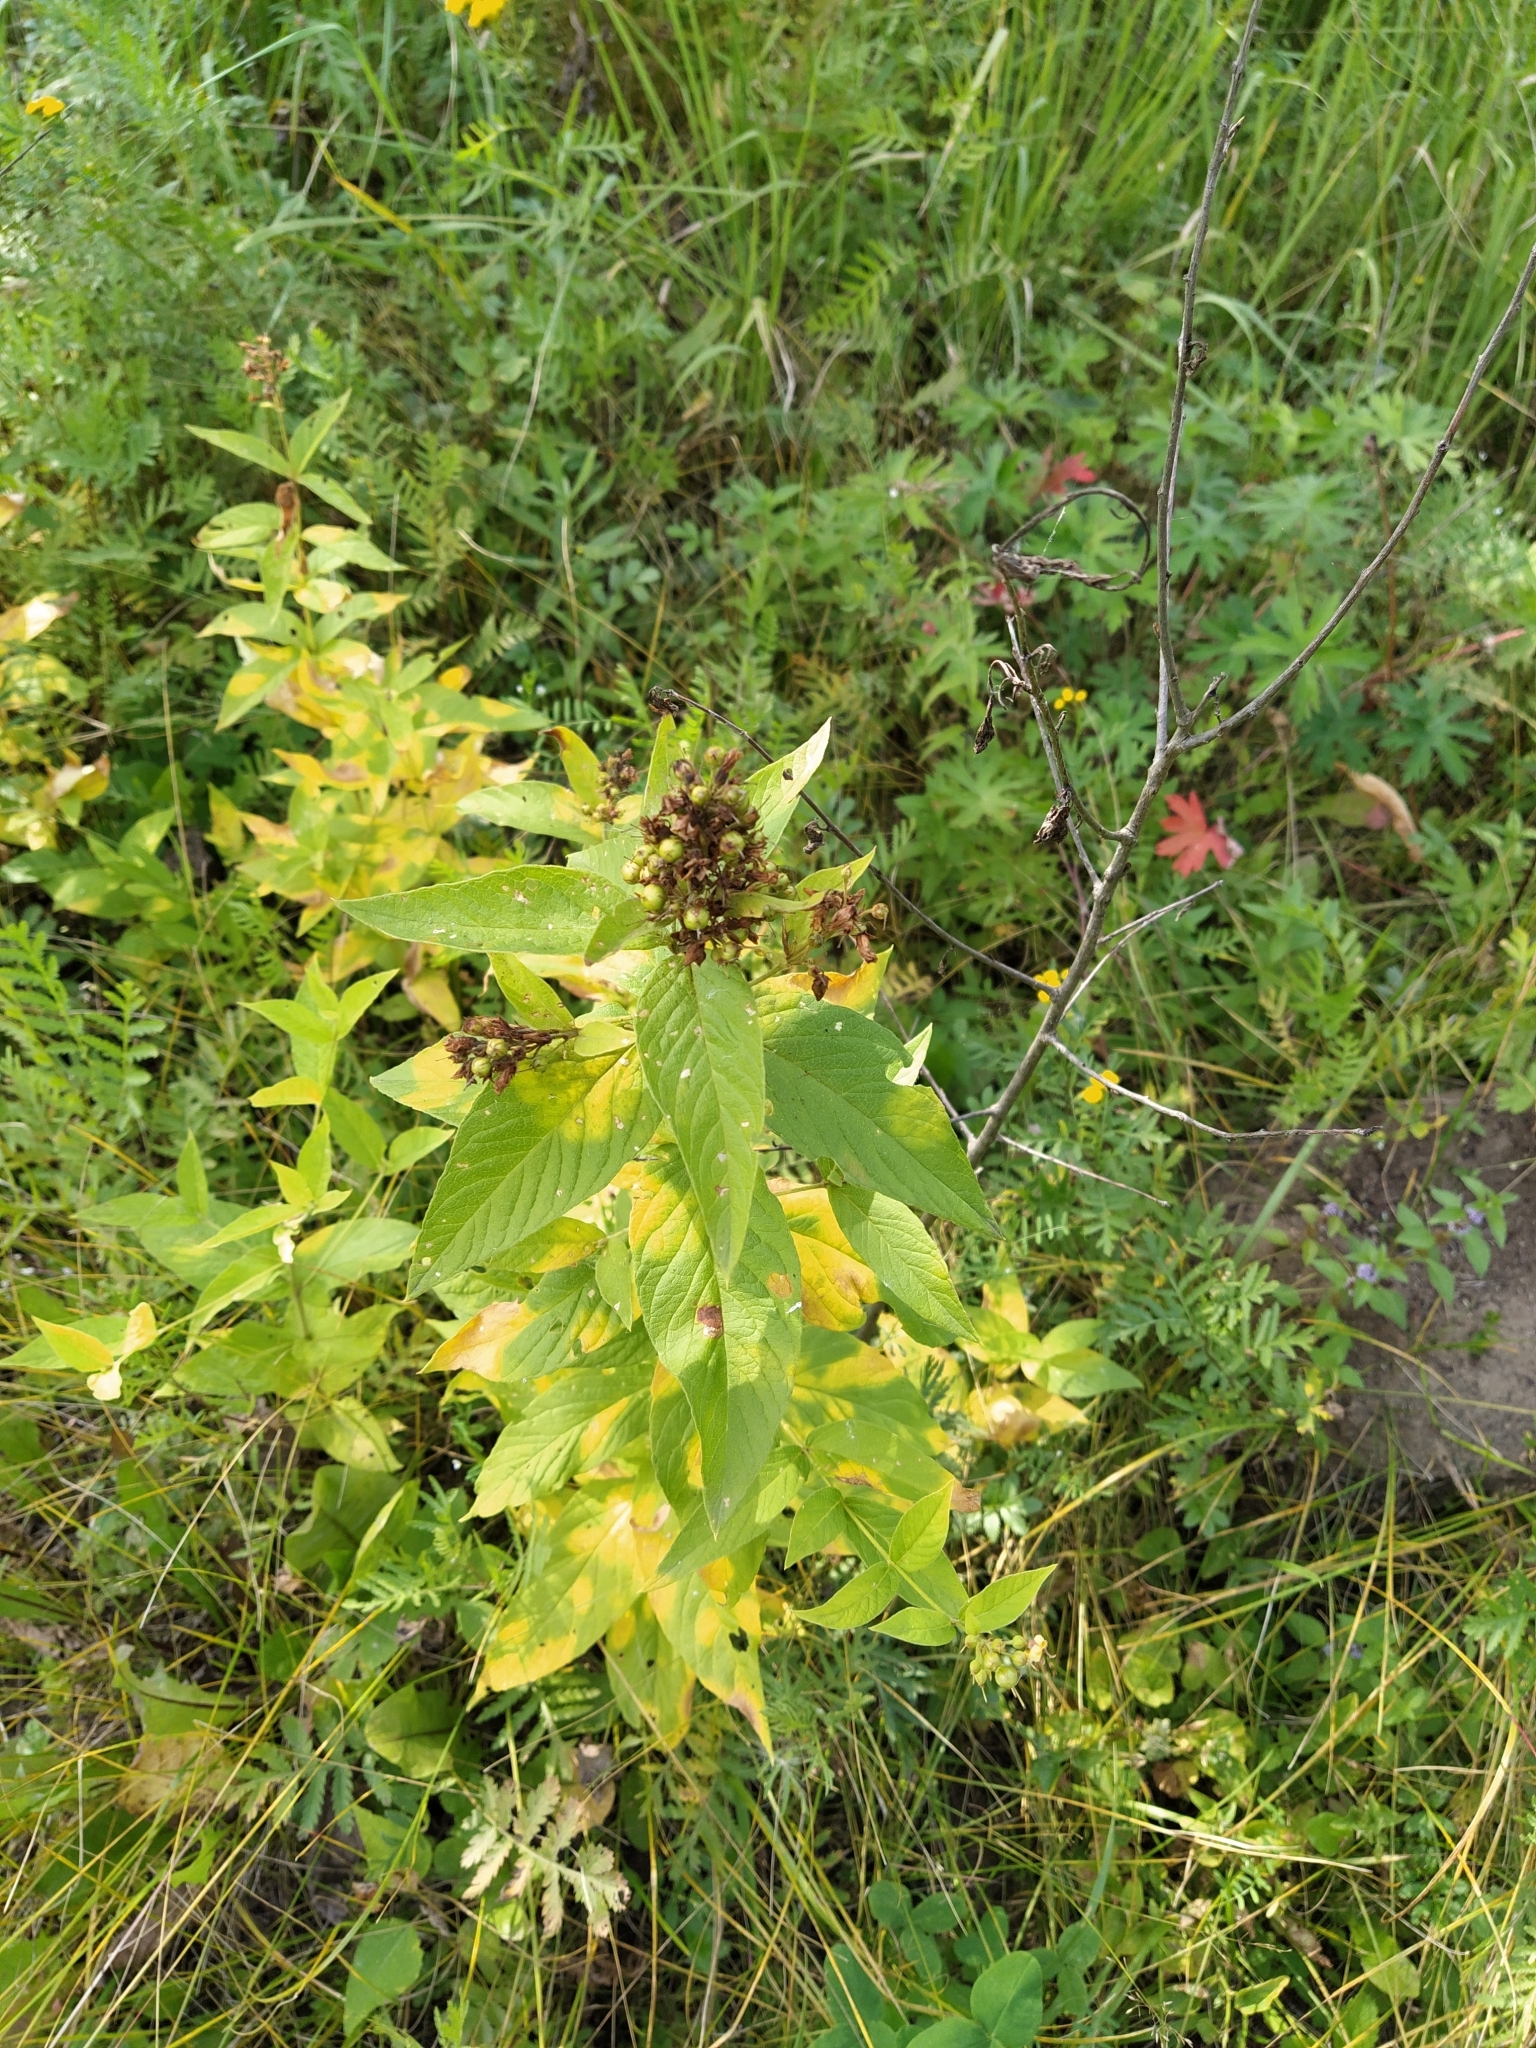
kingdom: Plantae
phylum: Tracheophyta
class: Magnoliopsida
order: Ericales
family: Primulaceae
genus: Lysimachia
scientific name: Lysimachia vulgaris
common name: Yellow loosestrife
